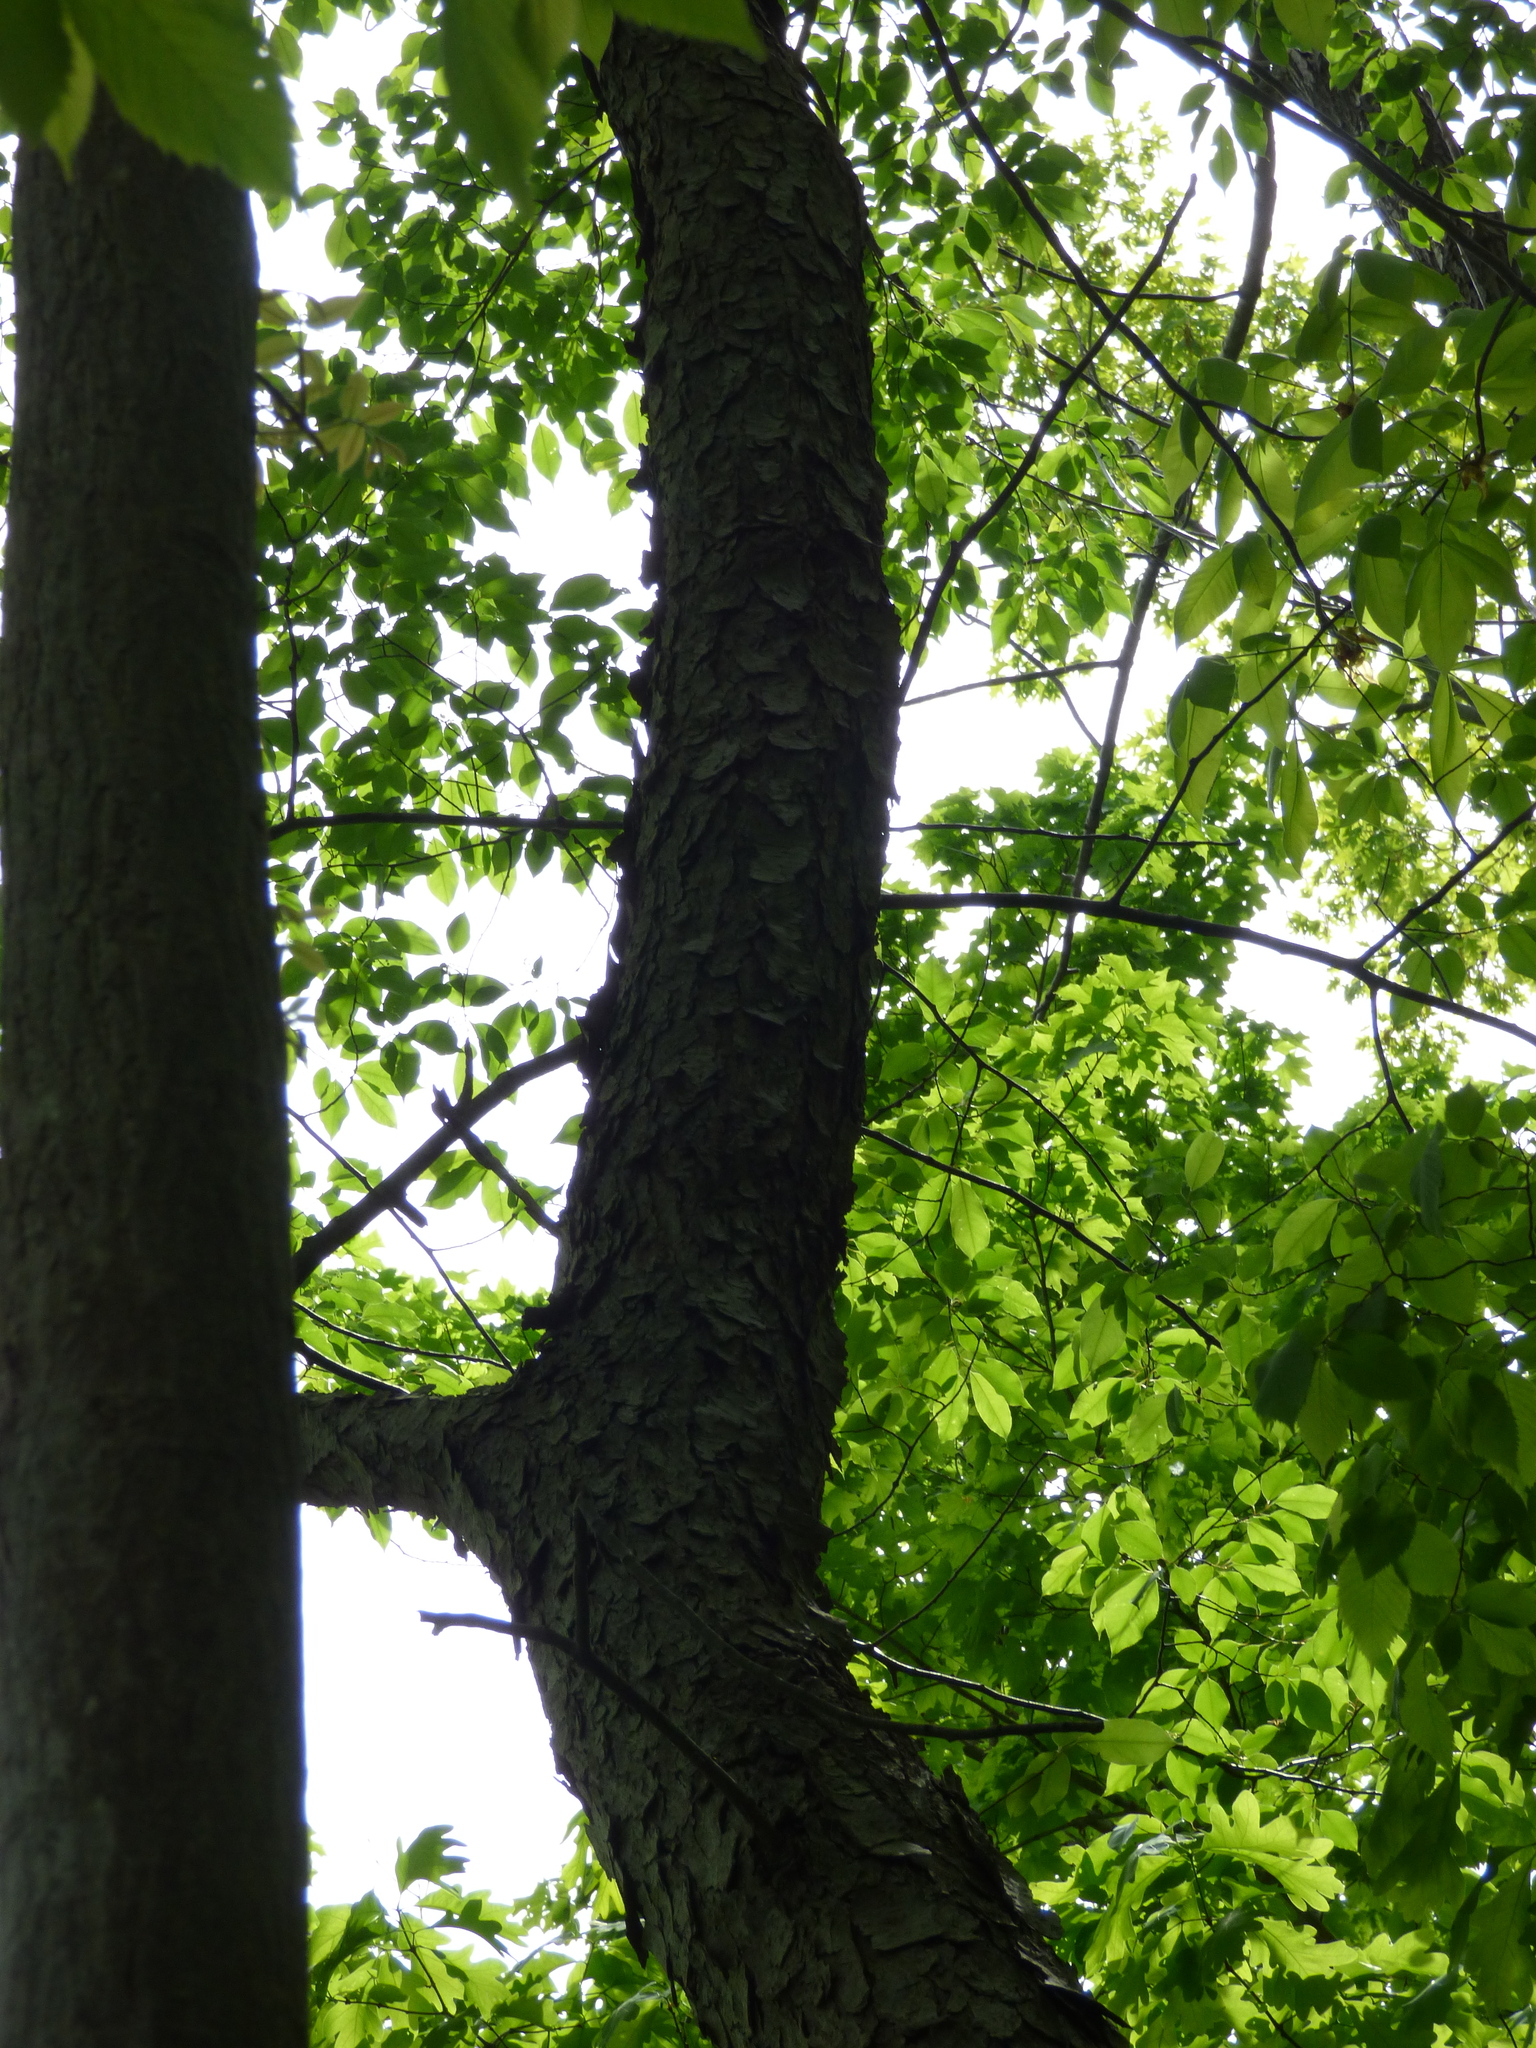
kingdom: Plantae
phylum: Tracheophyta
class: Magnoliopsida
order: Rosales
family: Rosaceae
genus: Prunus
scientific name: Prunus serotina
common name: Black cherry
